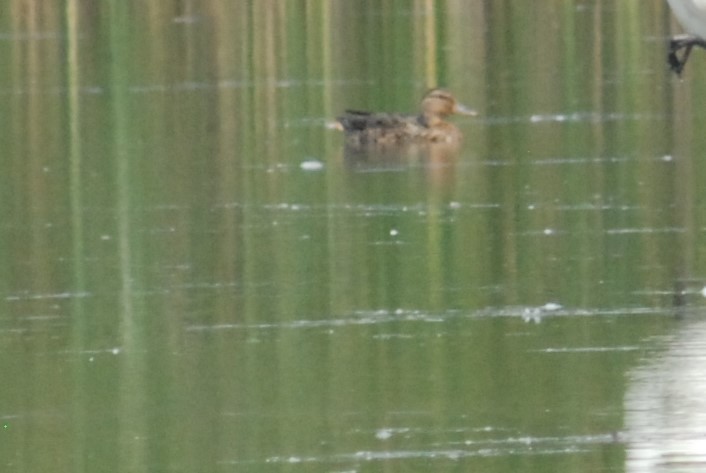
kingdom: Animalia
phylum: Chordata
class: Aves
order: Anseriformes
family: Anatidae
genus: Anas
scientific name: Anas platyrhynchos
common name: Mallard
